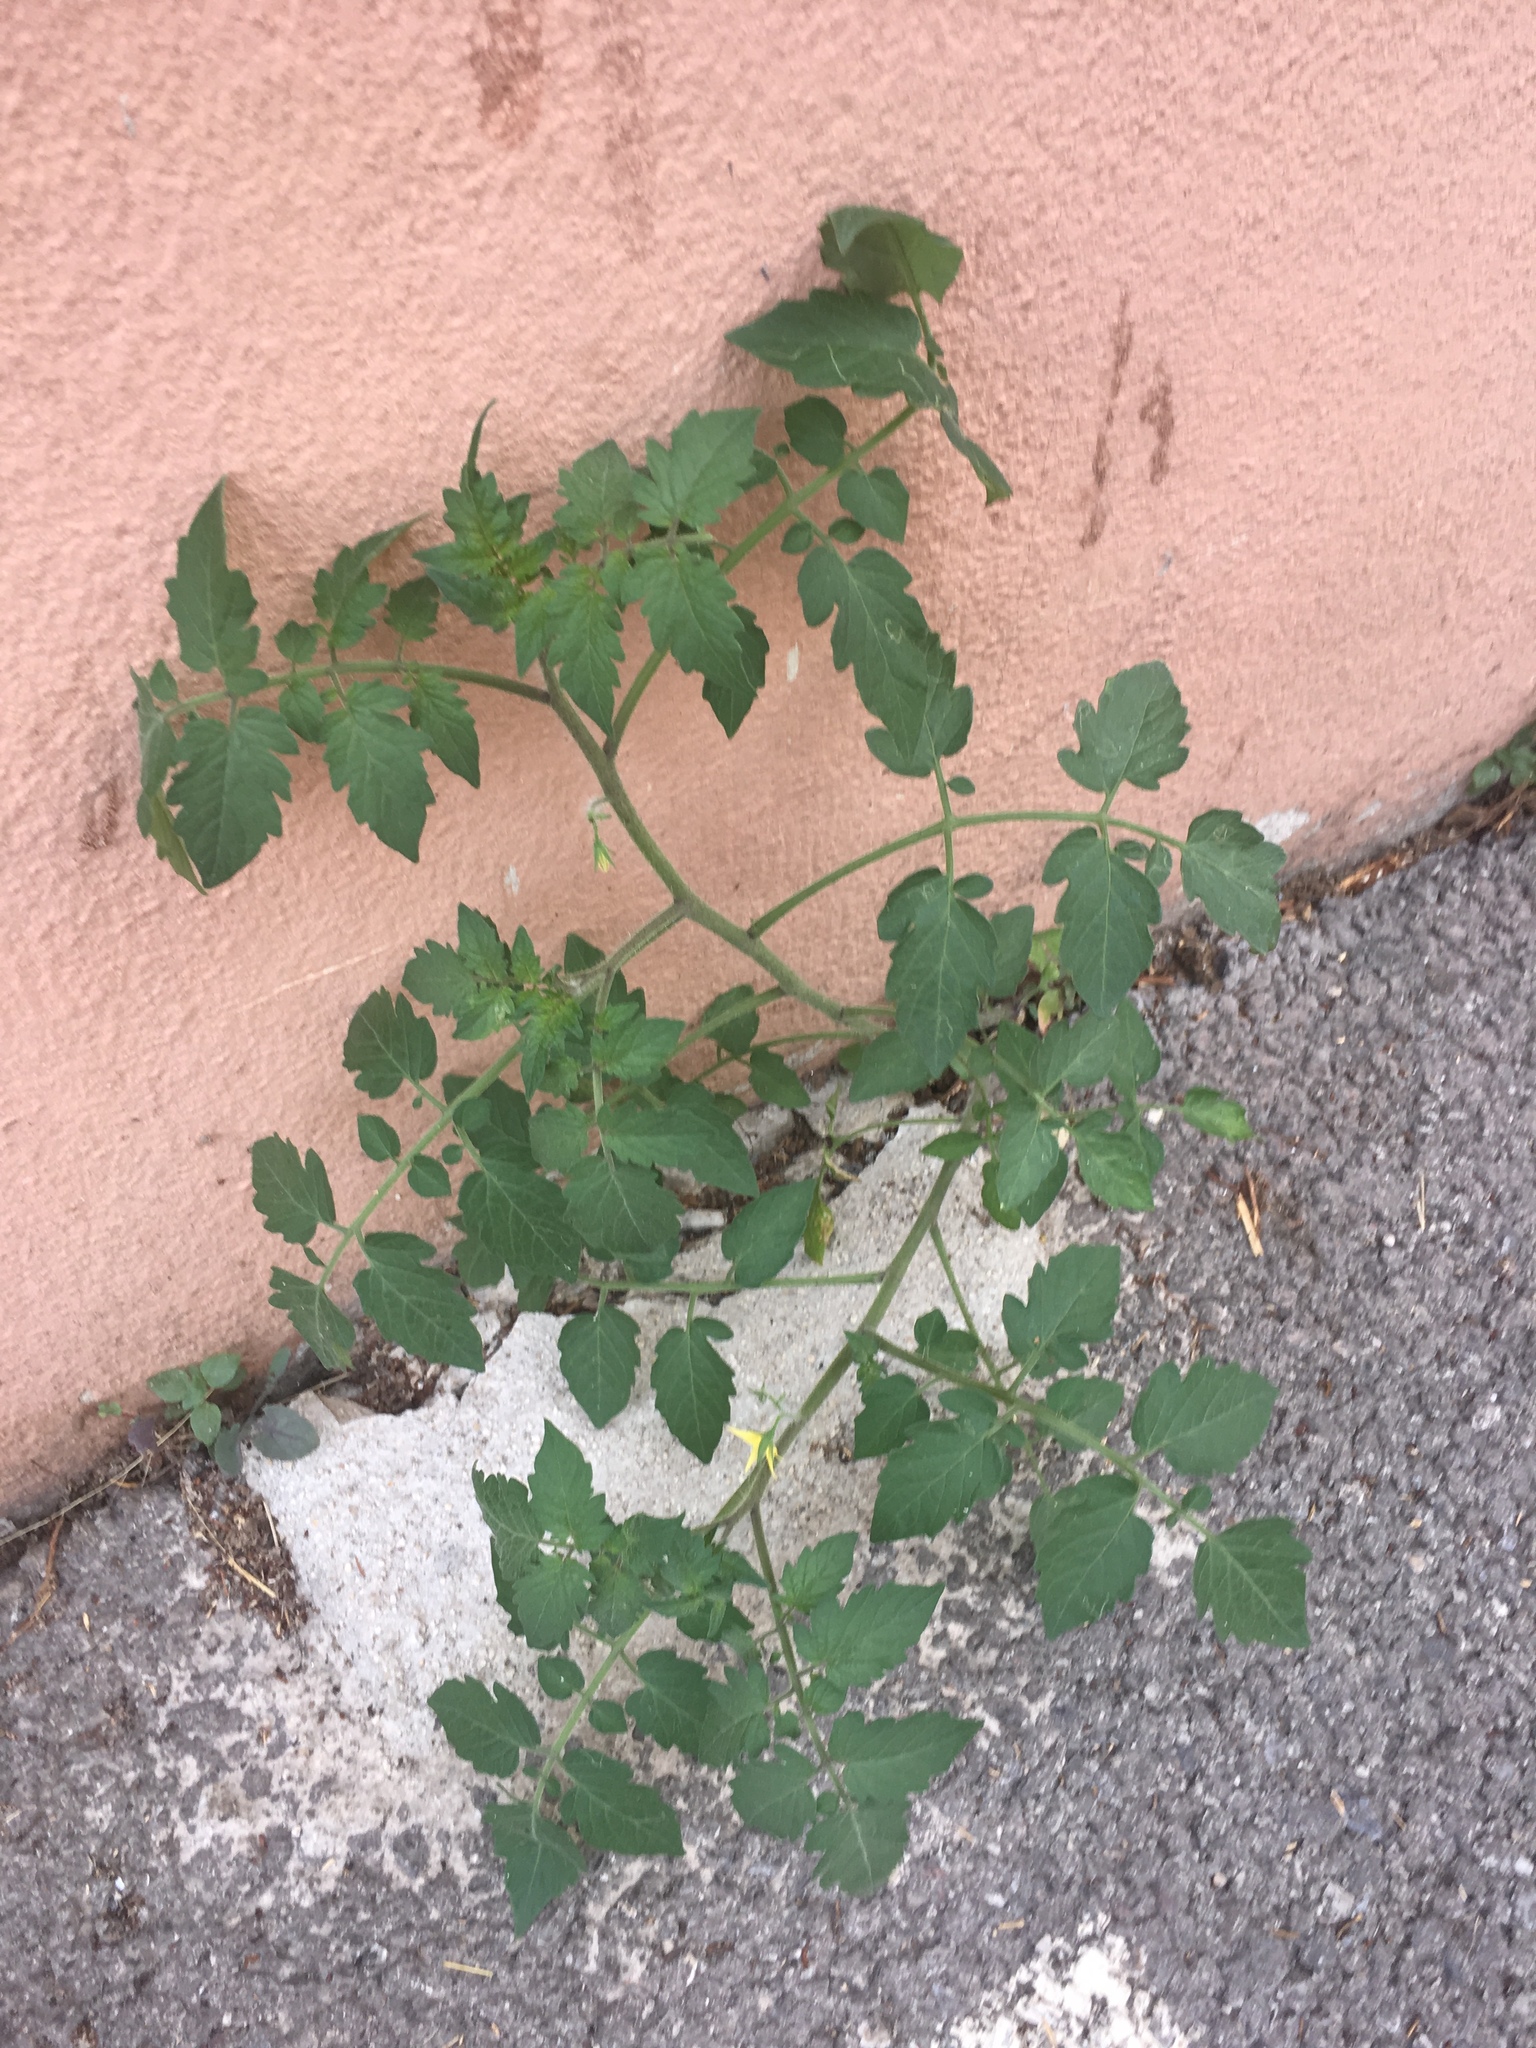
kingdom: Plantae
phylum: Tracheophyta
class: Magnoliopsida
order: Solanales
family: Solanaceae
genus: Solanum
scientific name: Solanum lycopersicum
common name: Garden tomato
